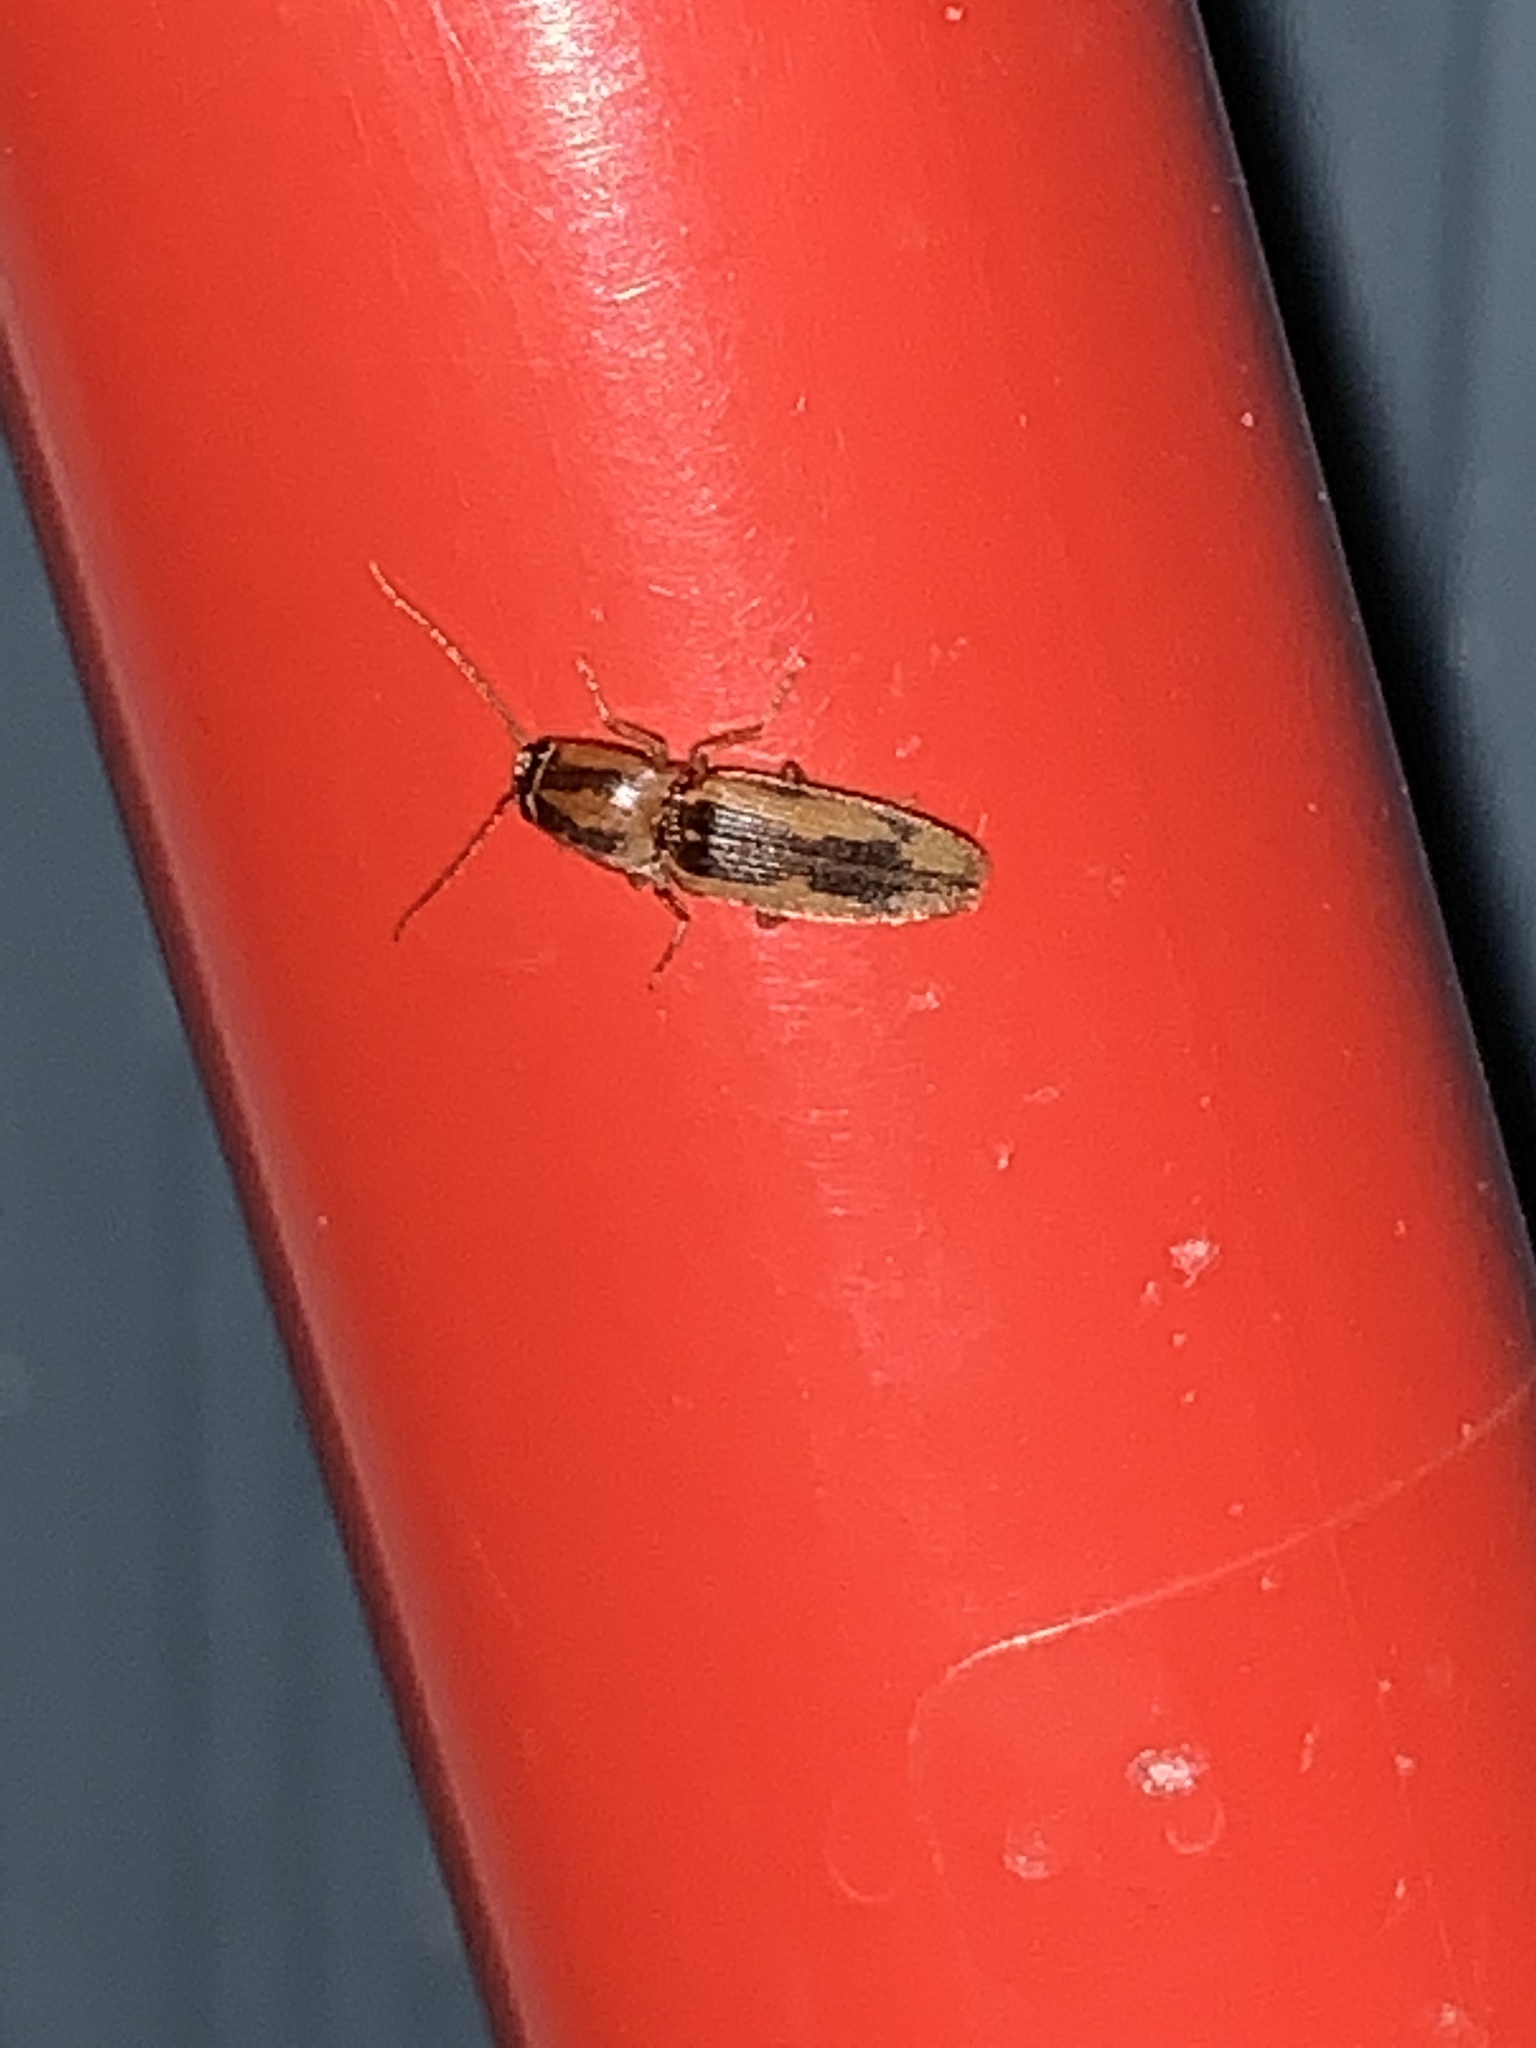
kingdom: Animalia
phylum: Arthropoda
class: Insecta
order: Coleoptera
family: Elateridae
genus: Monocrepidius
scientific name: Monocrepidius
